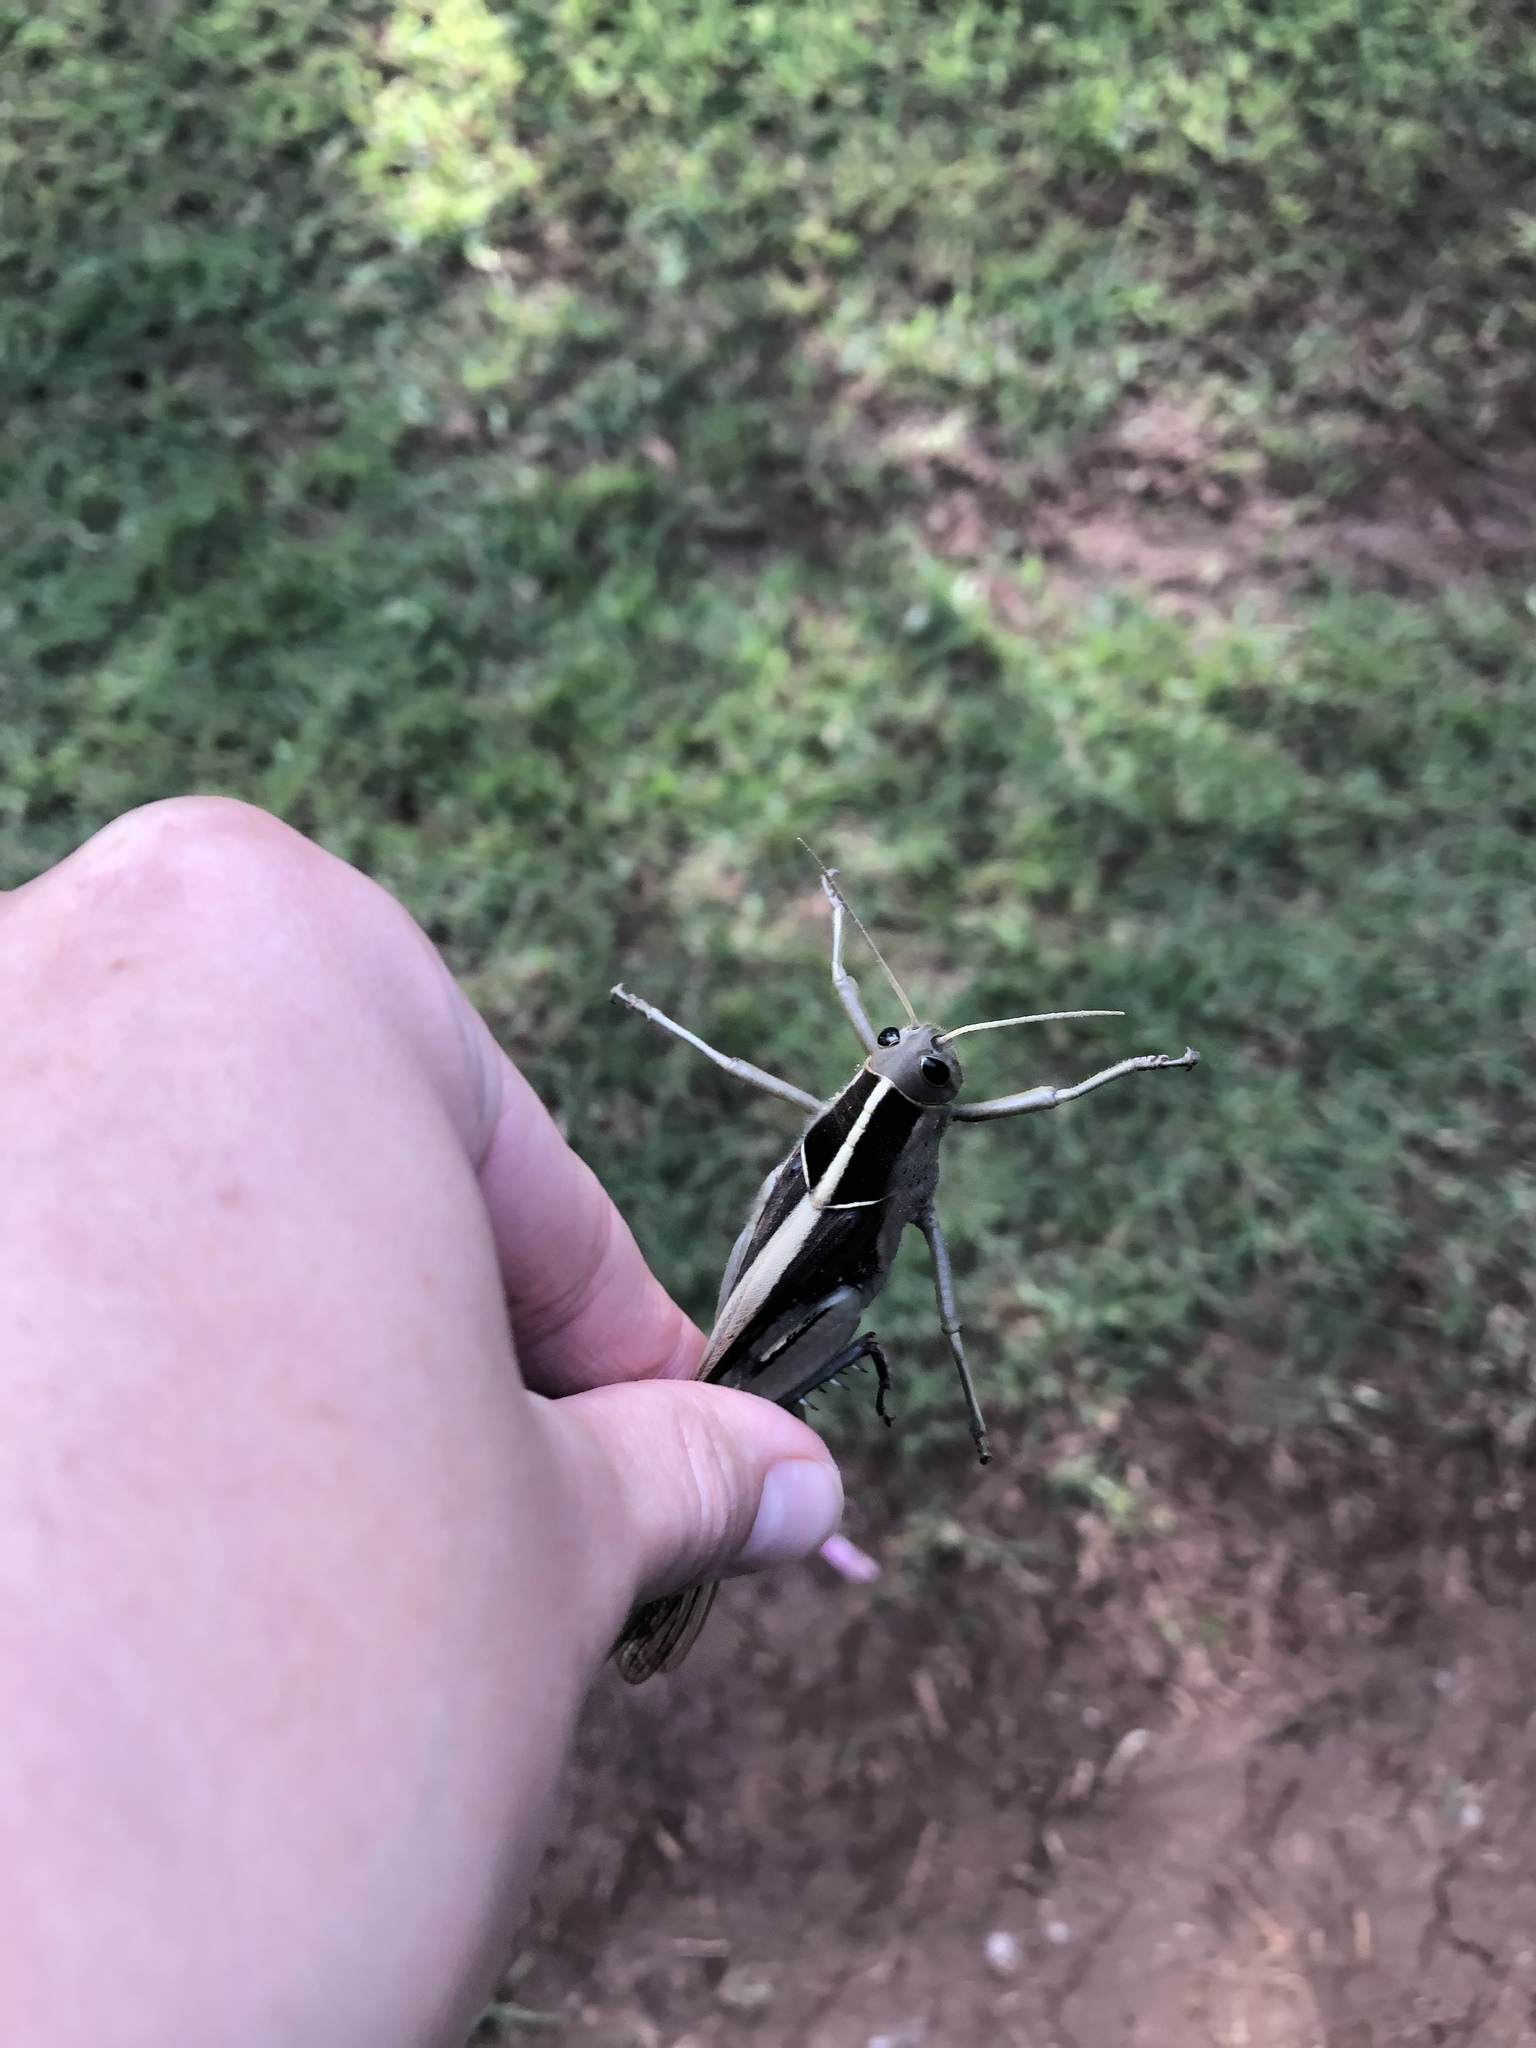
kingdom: Animalia
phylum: Arthropoda
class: Insecta
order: Orthoptera
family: Acrididae
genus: Acanthacris
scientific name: Acanthacris ruficornis
